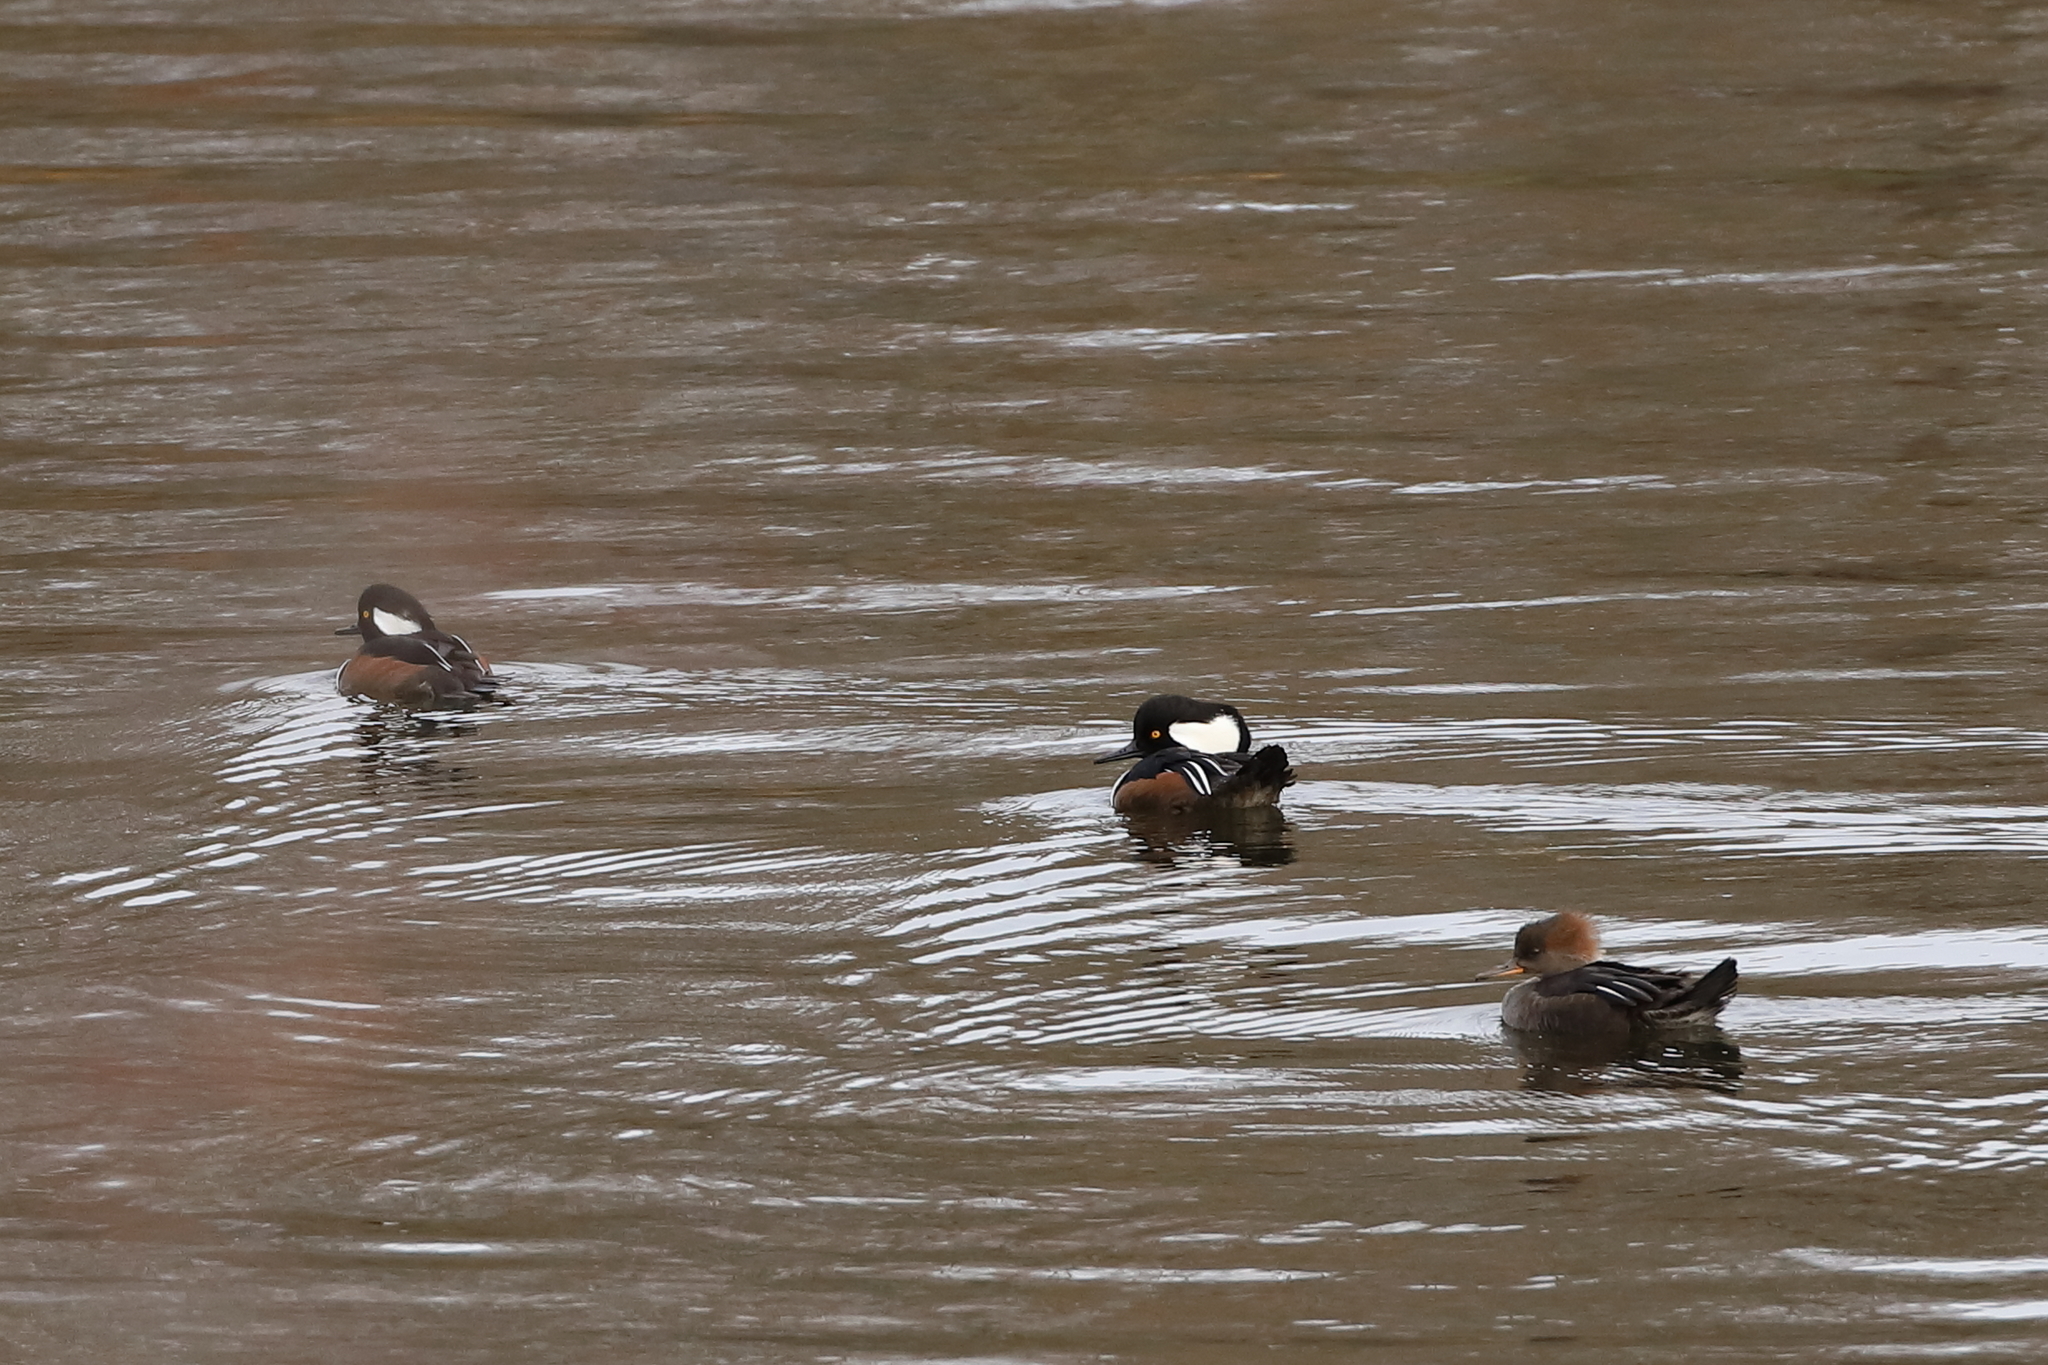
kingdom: Animalia
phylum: Chordata
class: Aves
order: Anseriformes
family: Anatidae
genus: Lophodytes
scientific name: Lophodytes cucullatus
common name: Hooded merganser
